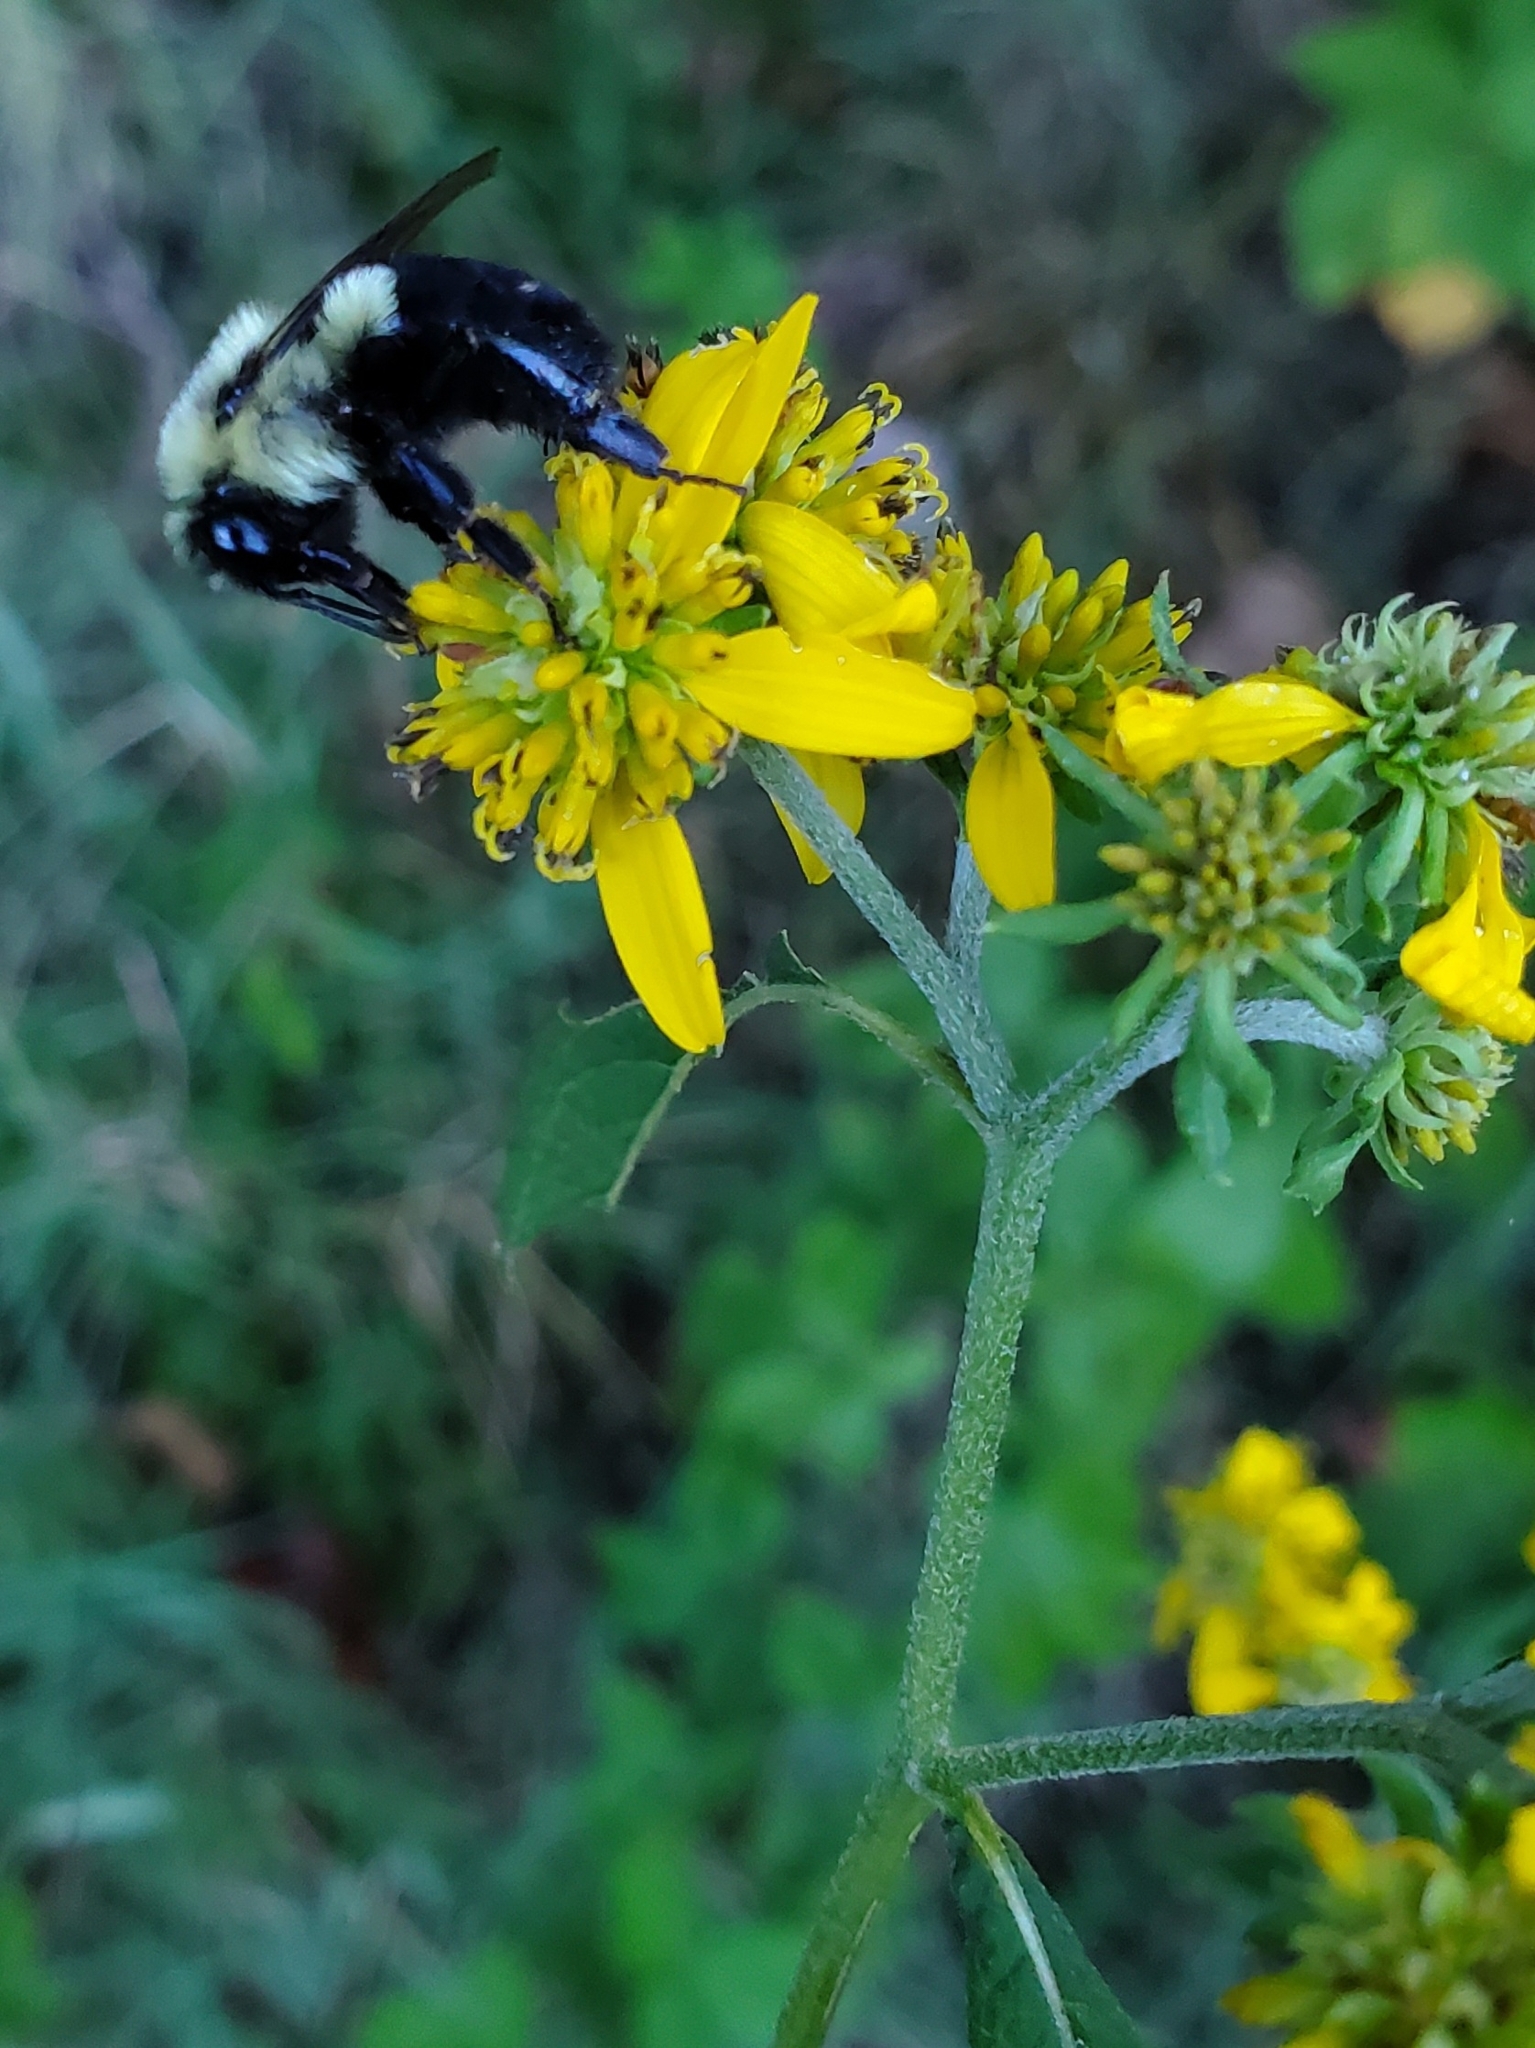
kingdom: Animalia
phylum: Arthropoda
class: Insecta
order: Hymenoptera
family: Apidae
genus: Bombus
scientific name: Bombus impatiens
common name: Common eastern bumble bee
